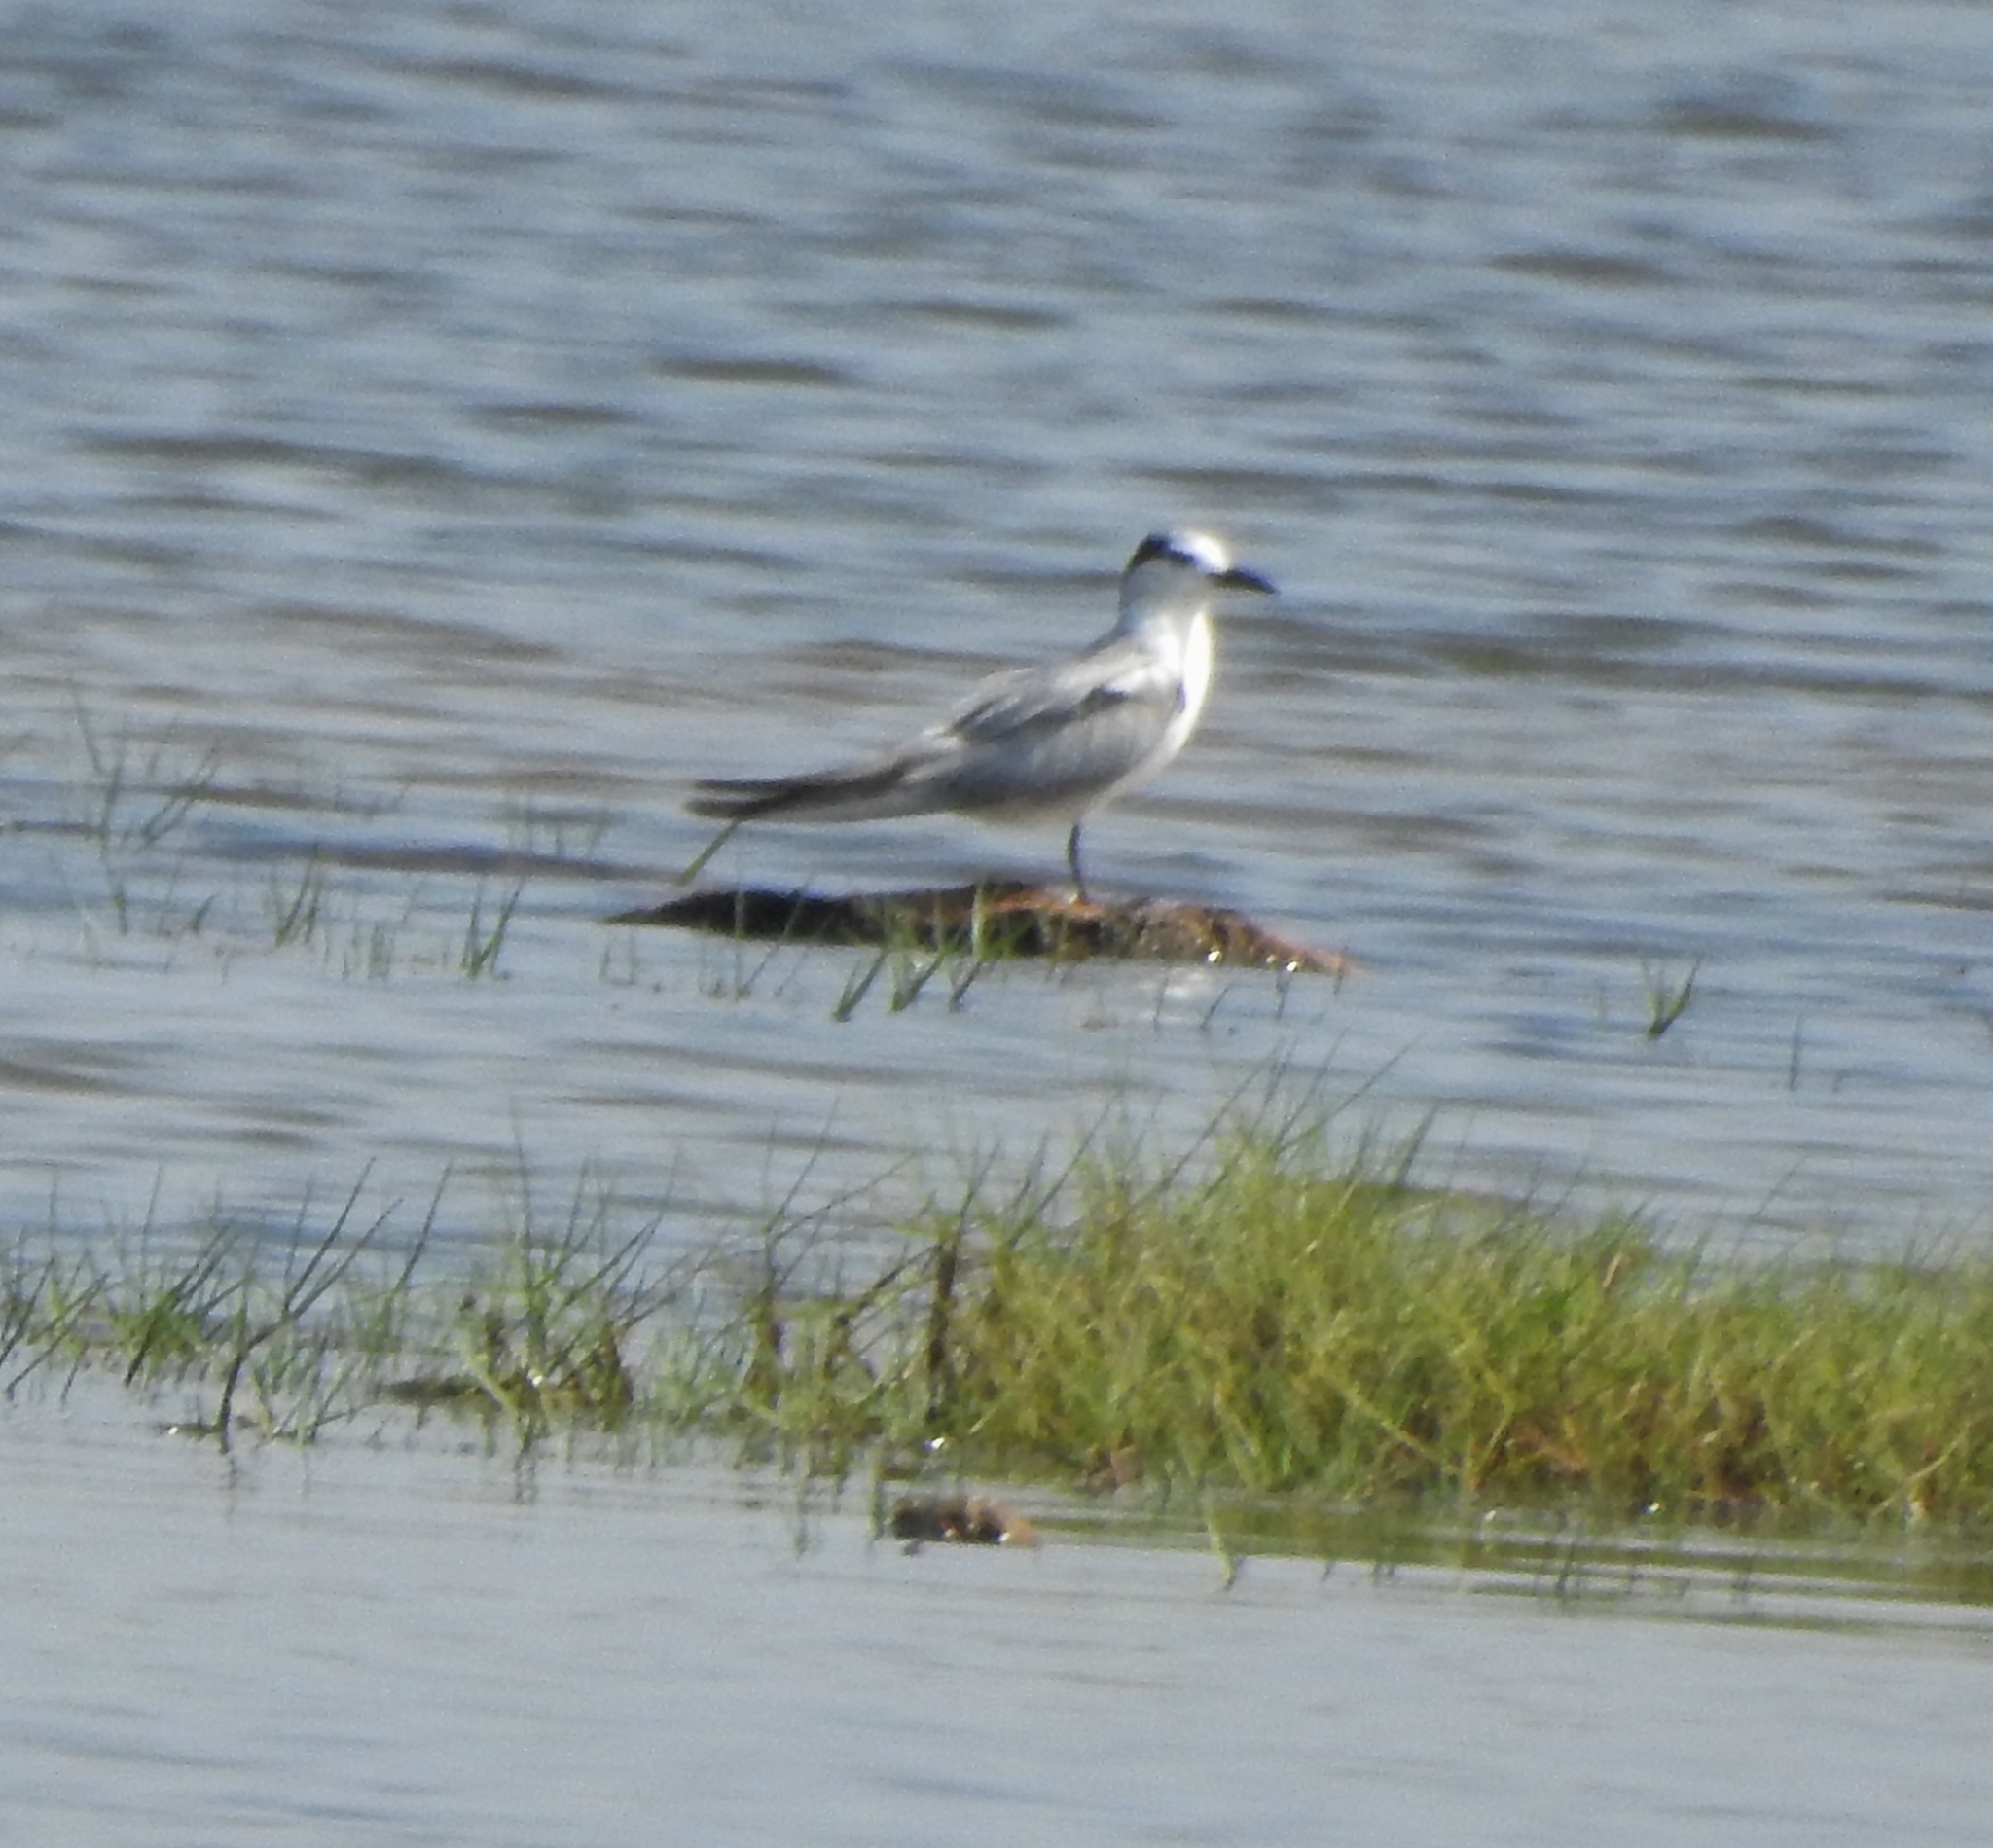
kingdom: Animalia
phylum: Chordata
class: Aves
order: Charadriiformes
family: Laridae
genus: Chlidonias
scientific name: Chlidonias hybrida
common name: Whiskered tern
